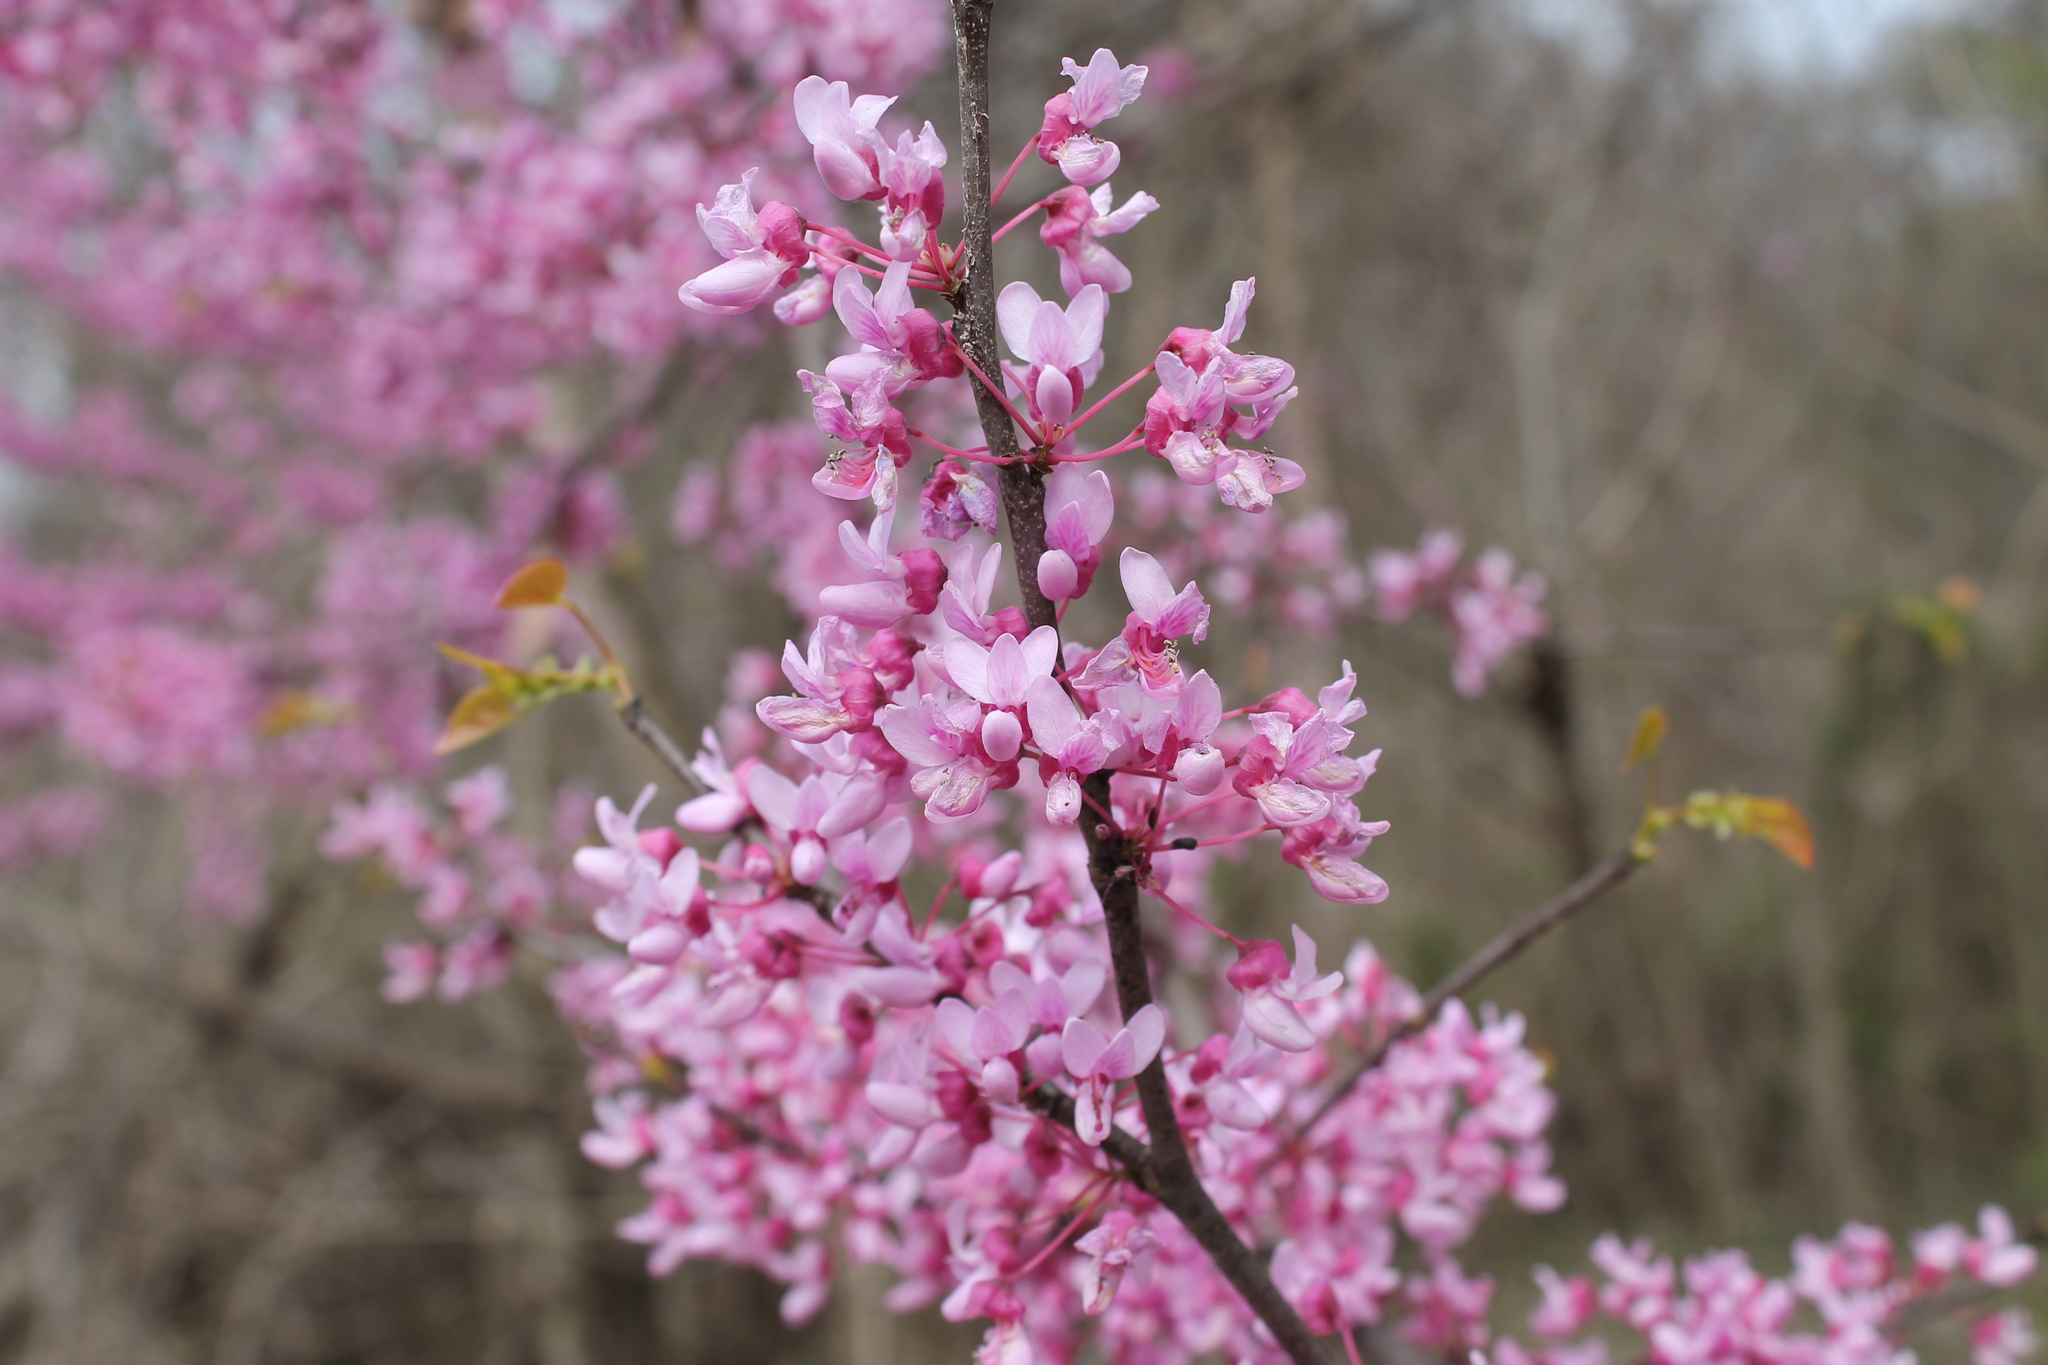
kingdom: Plantae
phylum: Tracheophyta
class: Magnoliopsida
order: Fabales
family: Fabaceae
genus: Cercis
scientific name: Cercis canadensis
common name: Eastern redbud
